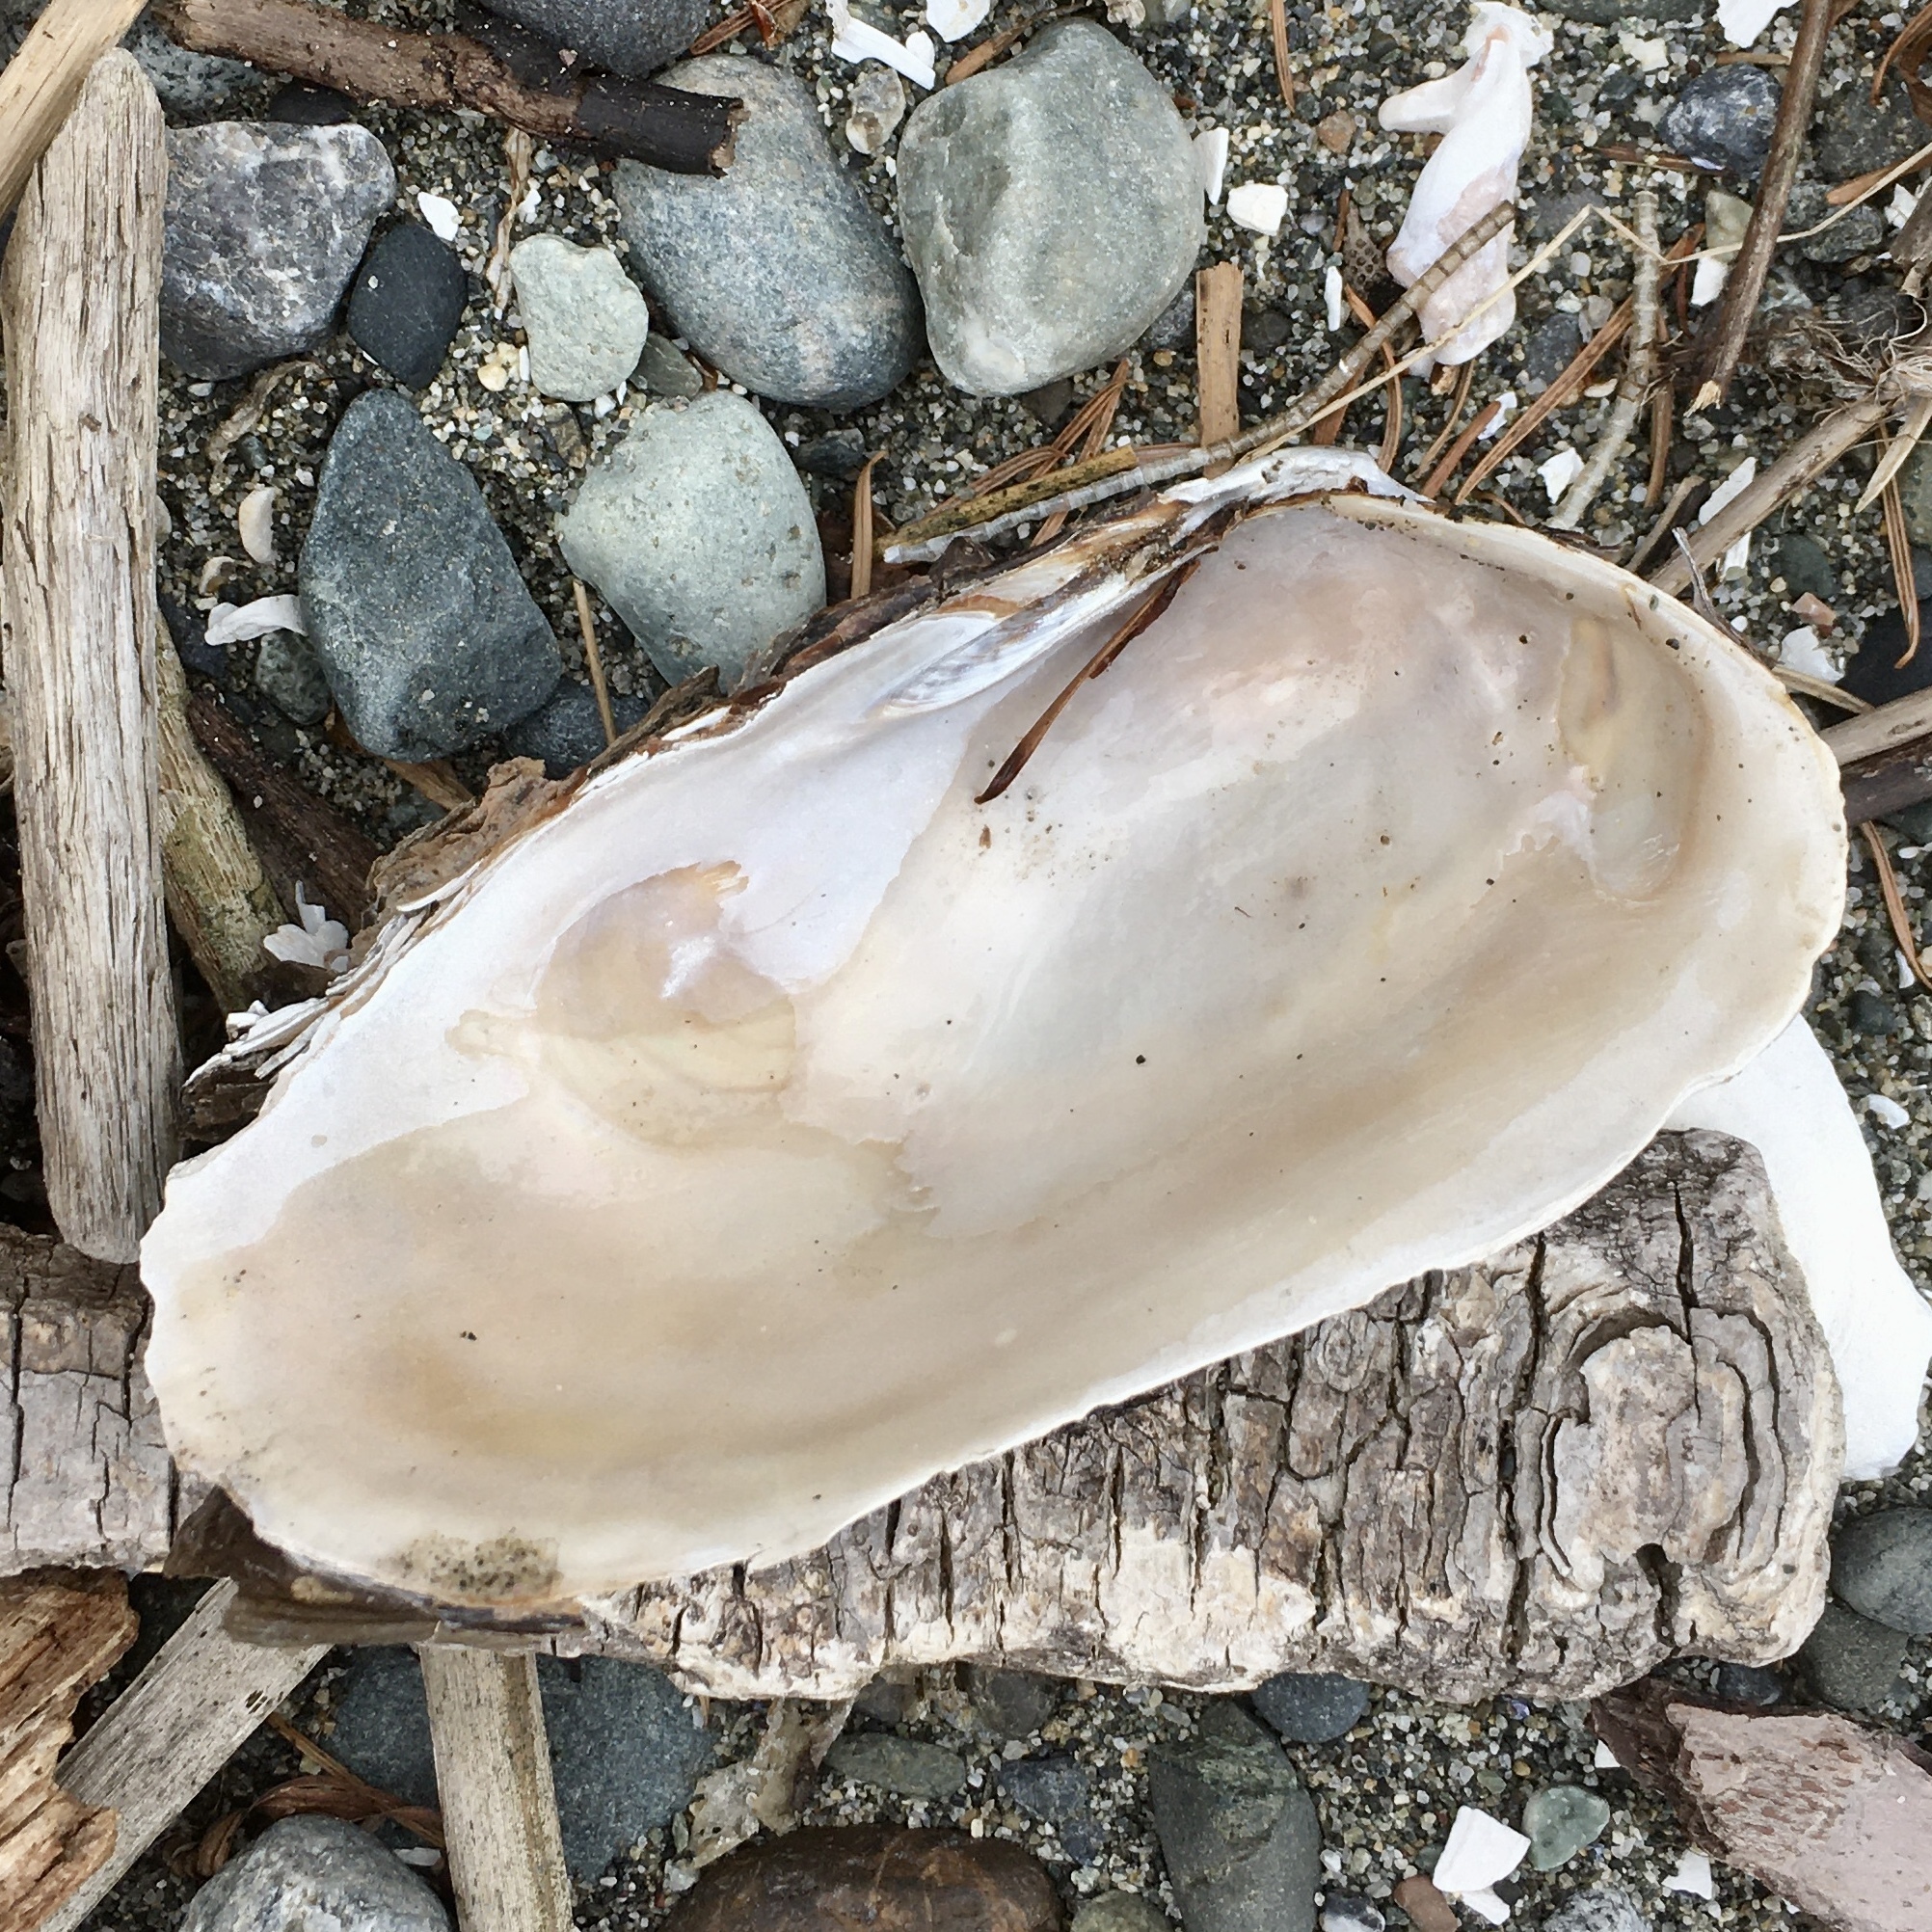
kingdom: Animalia
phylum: Mollusca
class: Bivalvia
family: Lyonsiidae
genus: Entodesma
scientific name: Entodesma navicula
